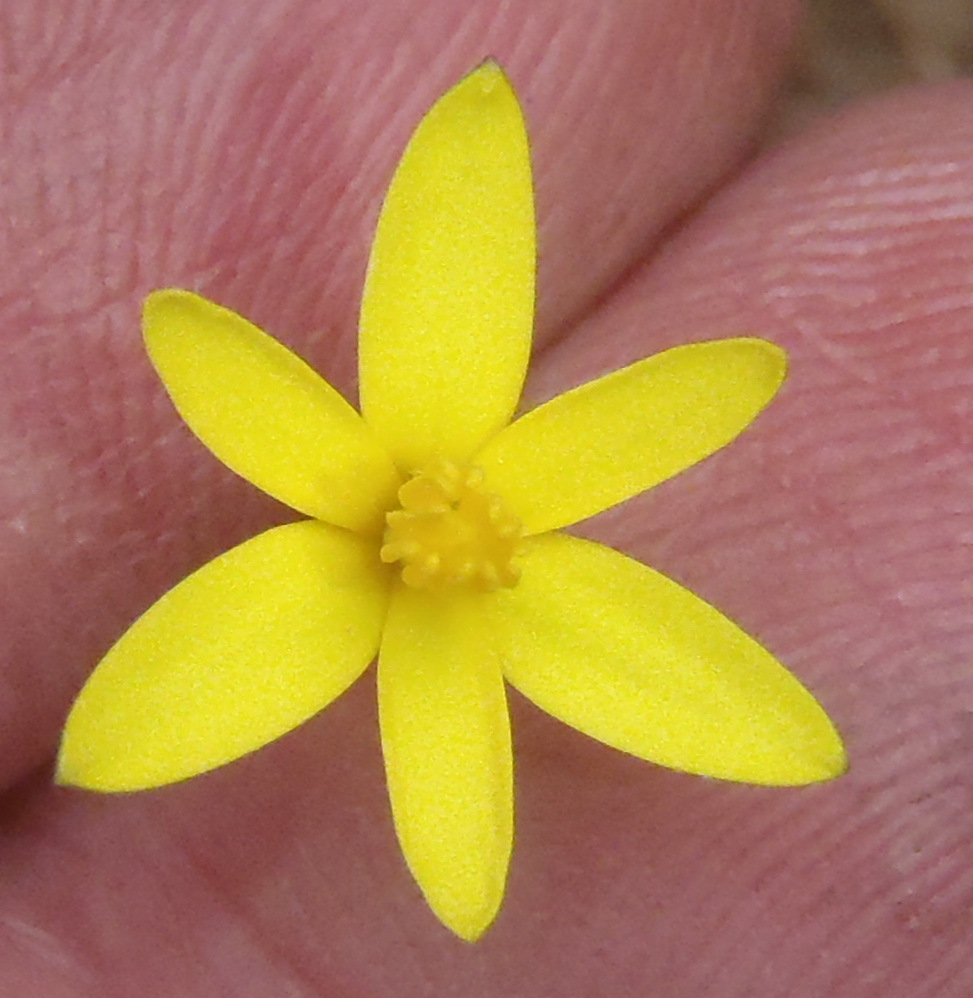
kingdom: Plantae
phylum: Tracheophyta
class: Liliopsida
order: Asparagales
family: Hypoxidaceae
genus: Pauridia
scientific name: Pauridia flaccida
